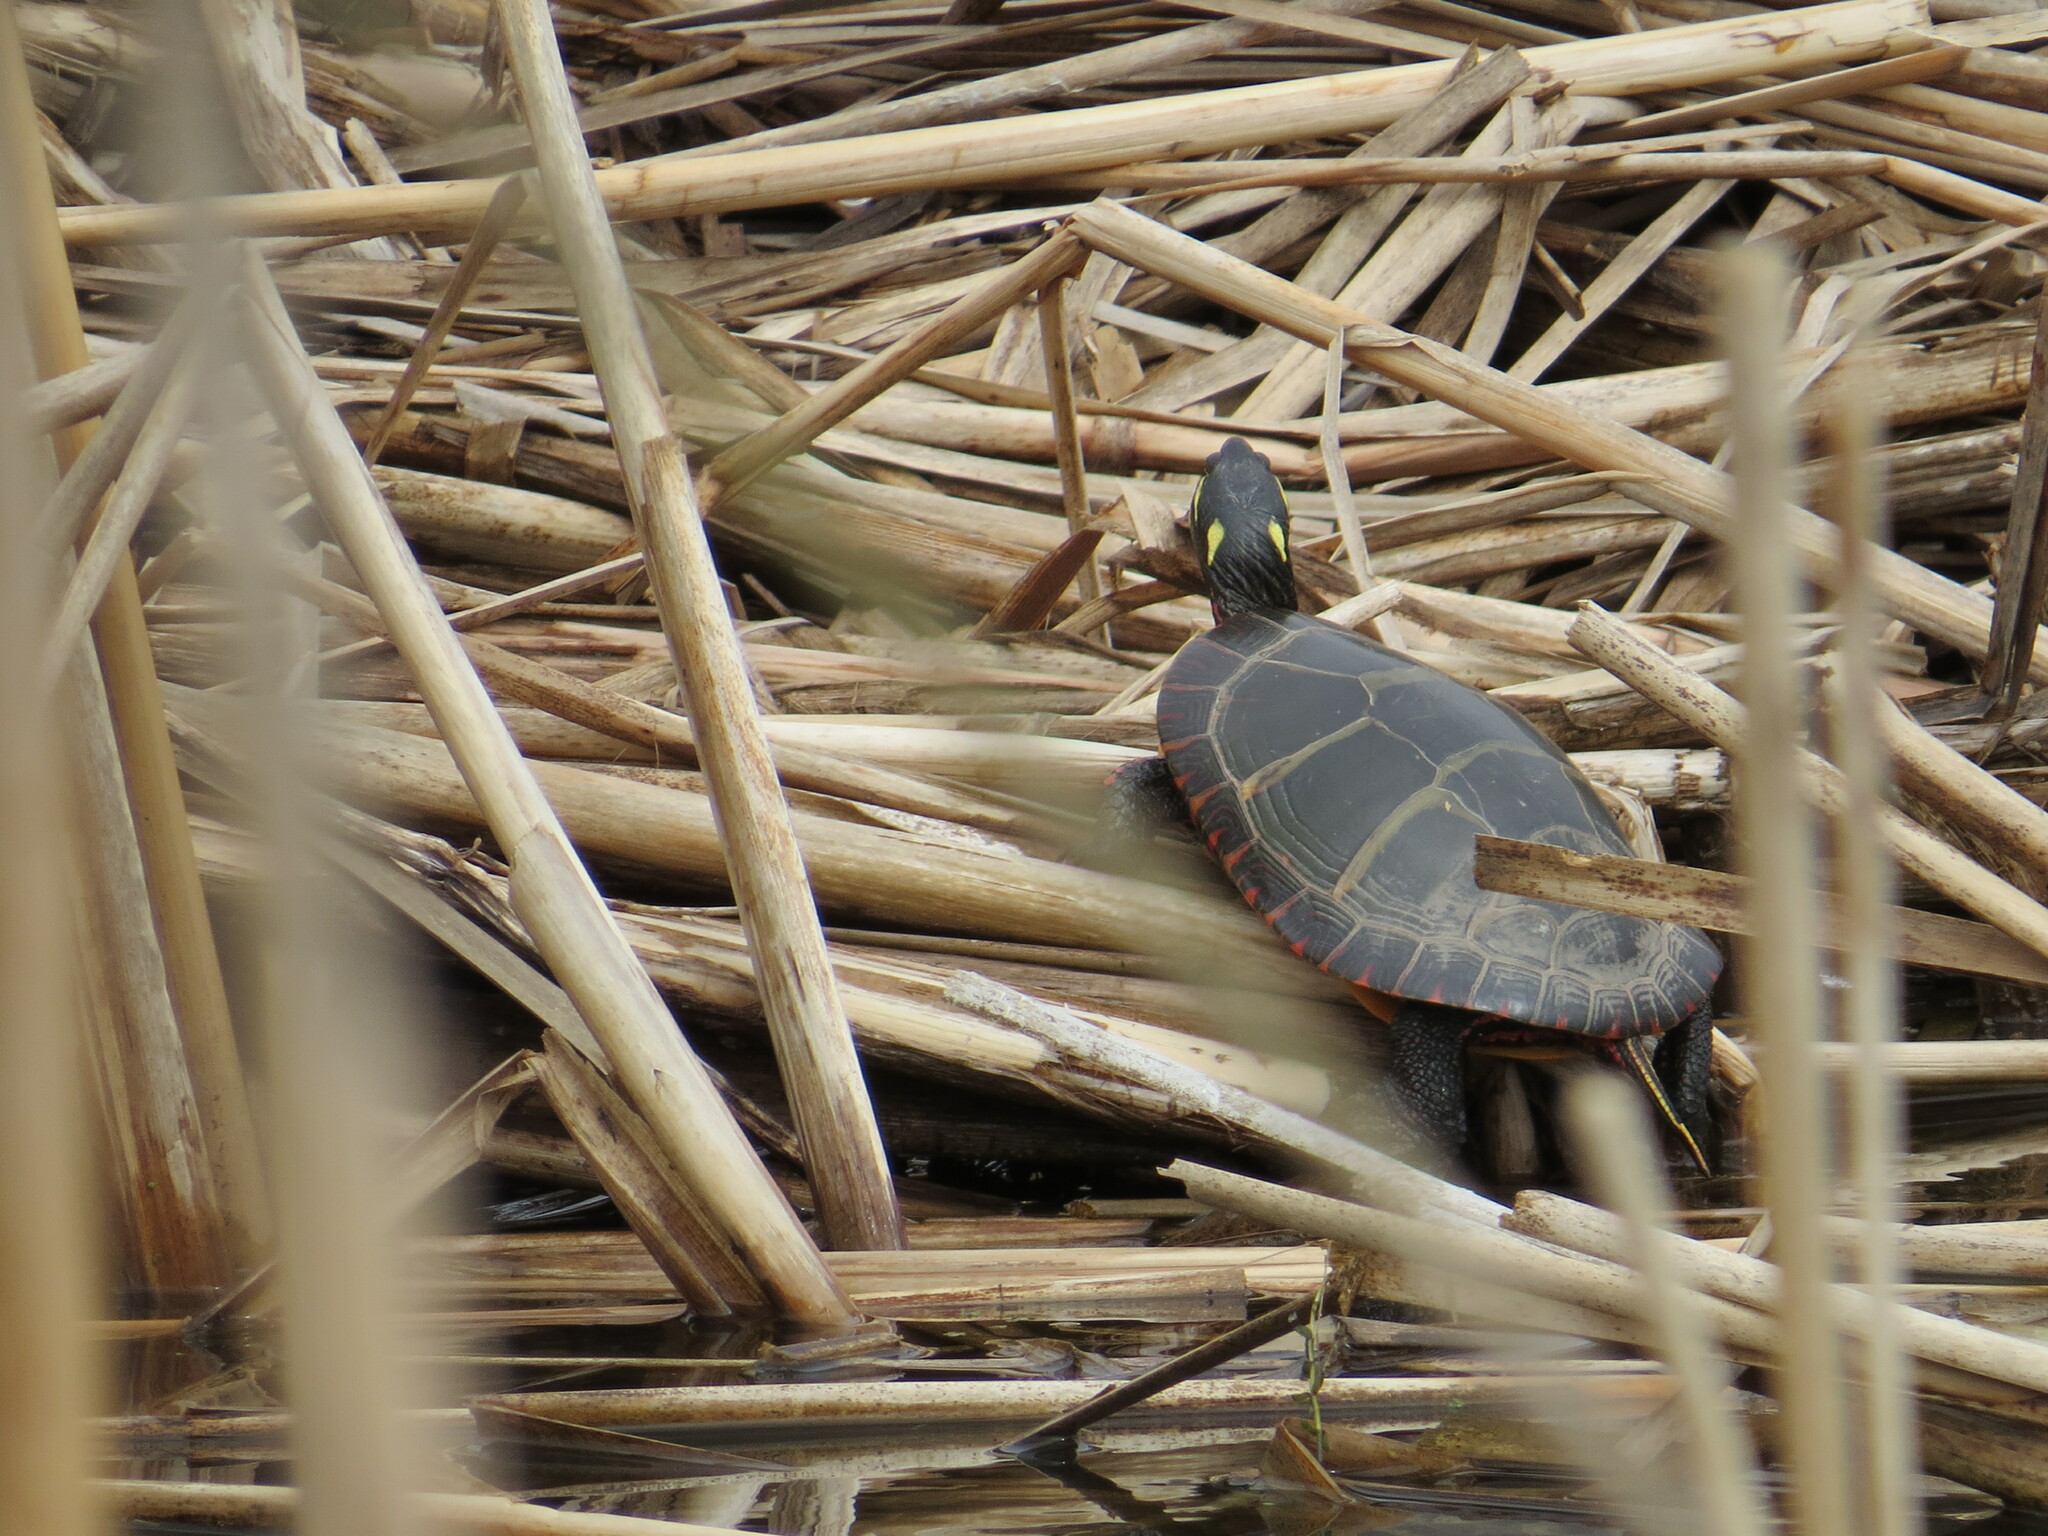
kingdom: Animalia
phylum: Chordata
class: Testudines
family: Emydidae
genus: Chrysemys
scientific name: Chrysemys picta
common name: Painted turtle
